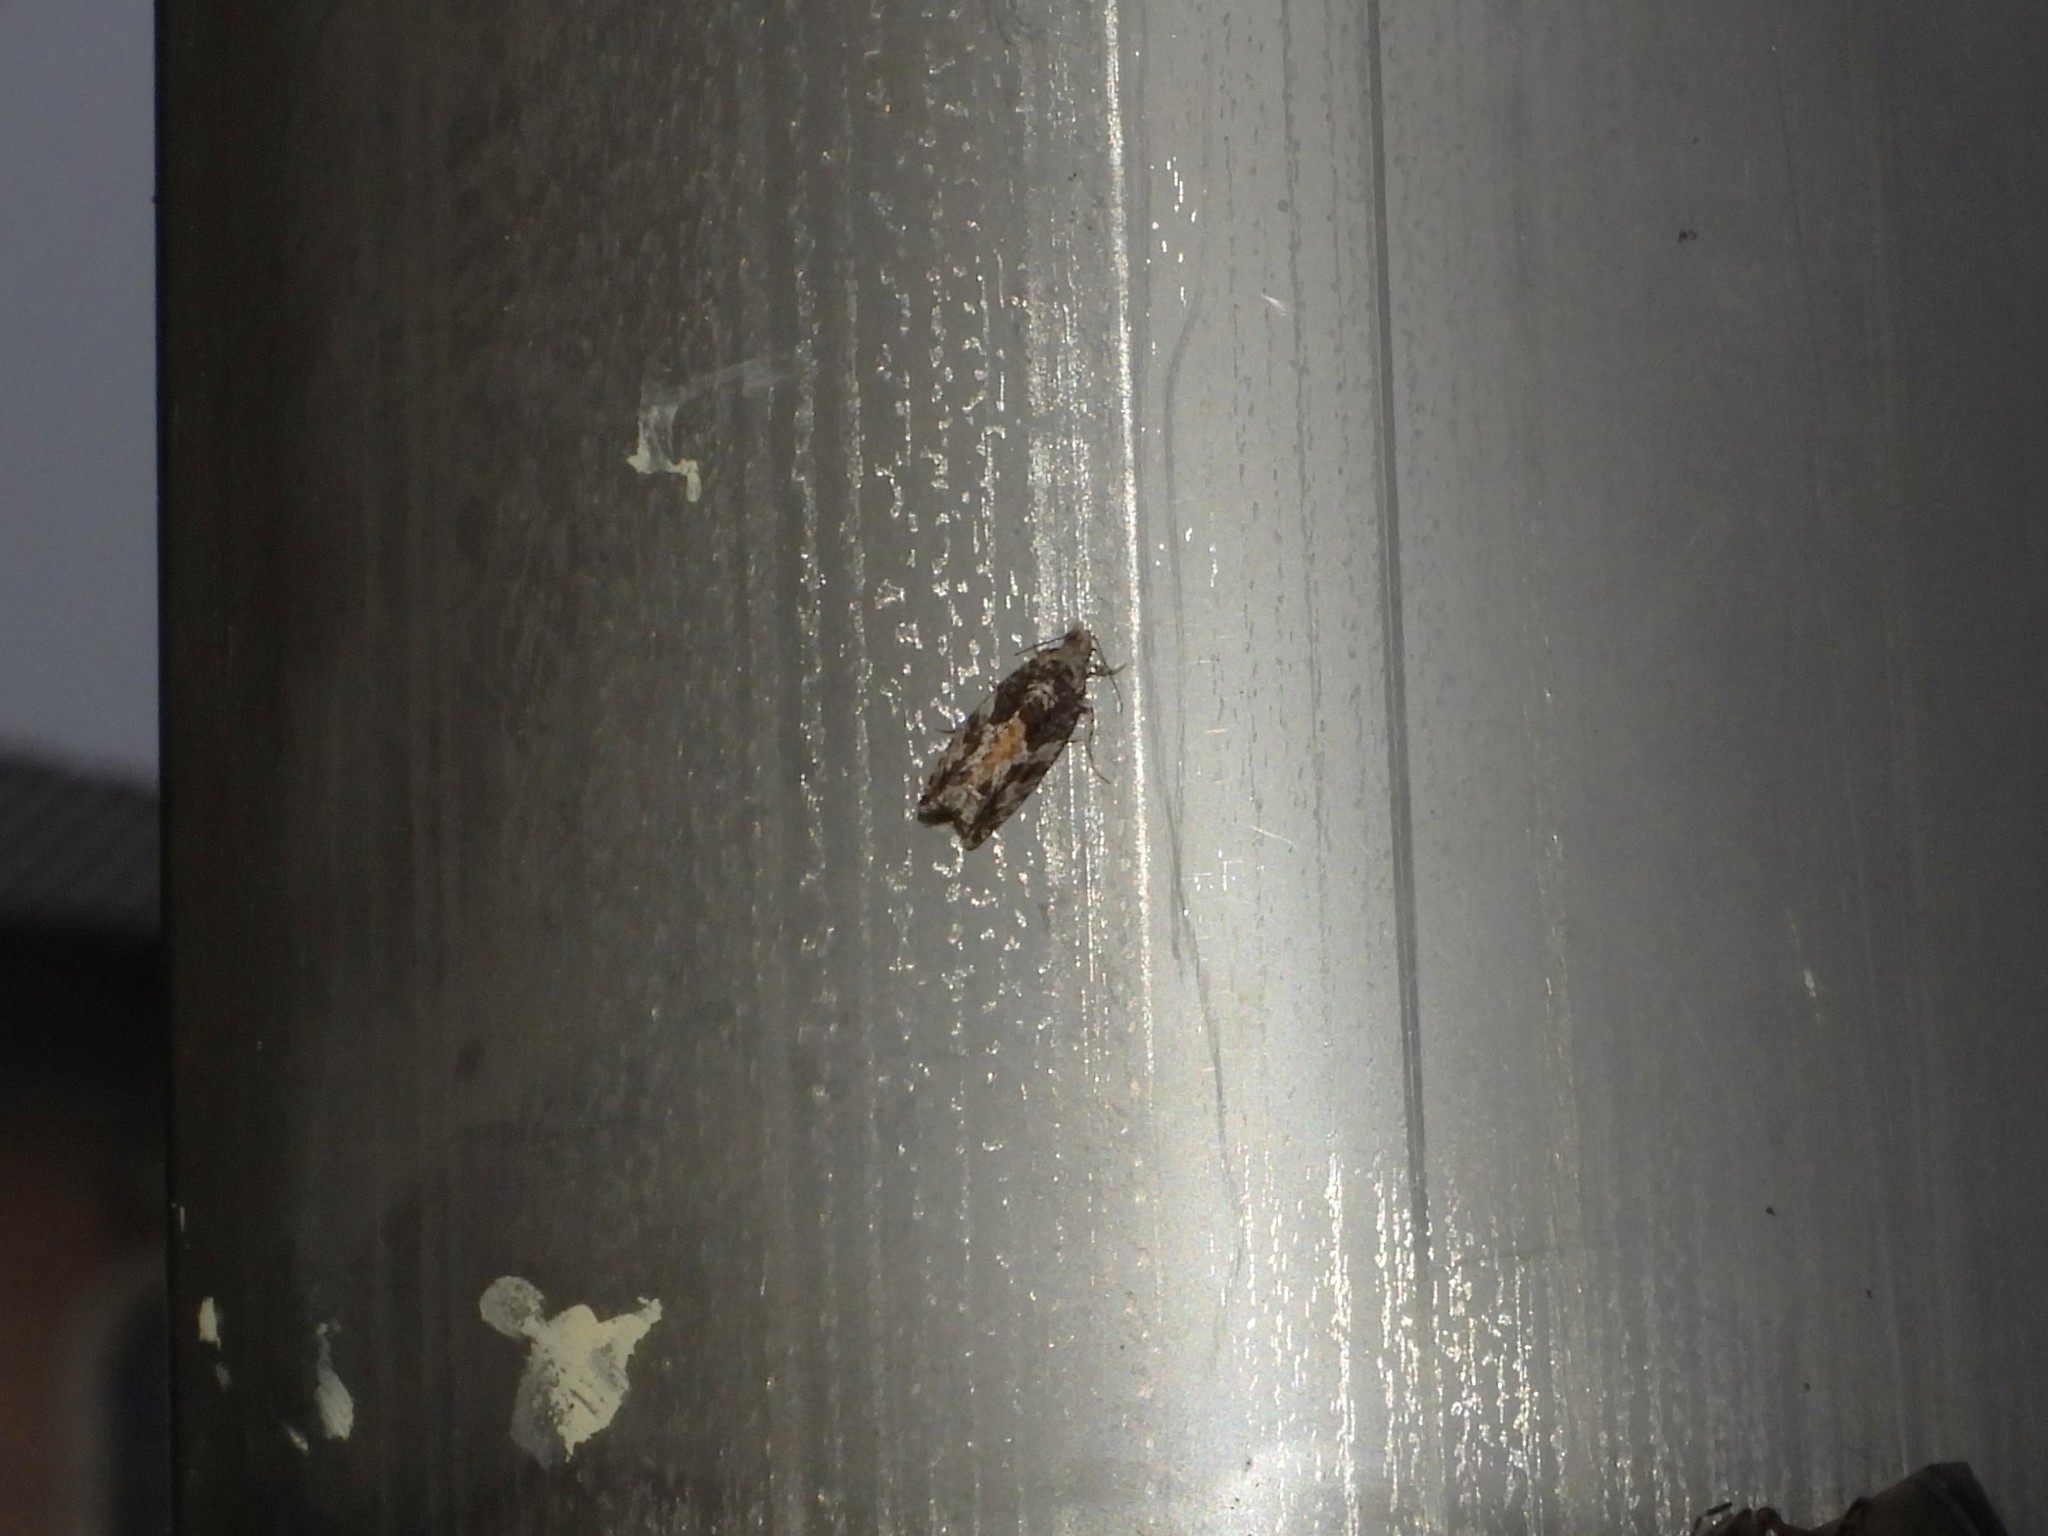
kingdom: Animalia
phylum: Arthropoda
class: Insecta
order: Lepidoptera
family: Tortricidae
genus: Epinotia
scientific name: Epinotia nisella
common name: Grey poplar bell
